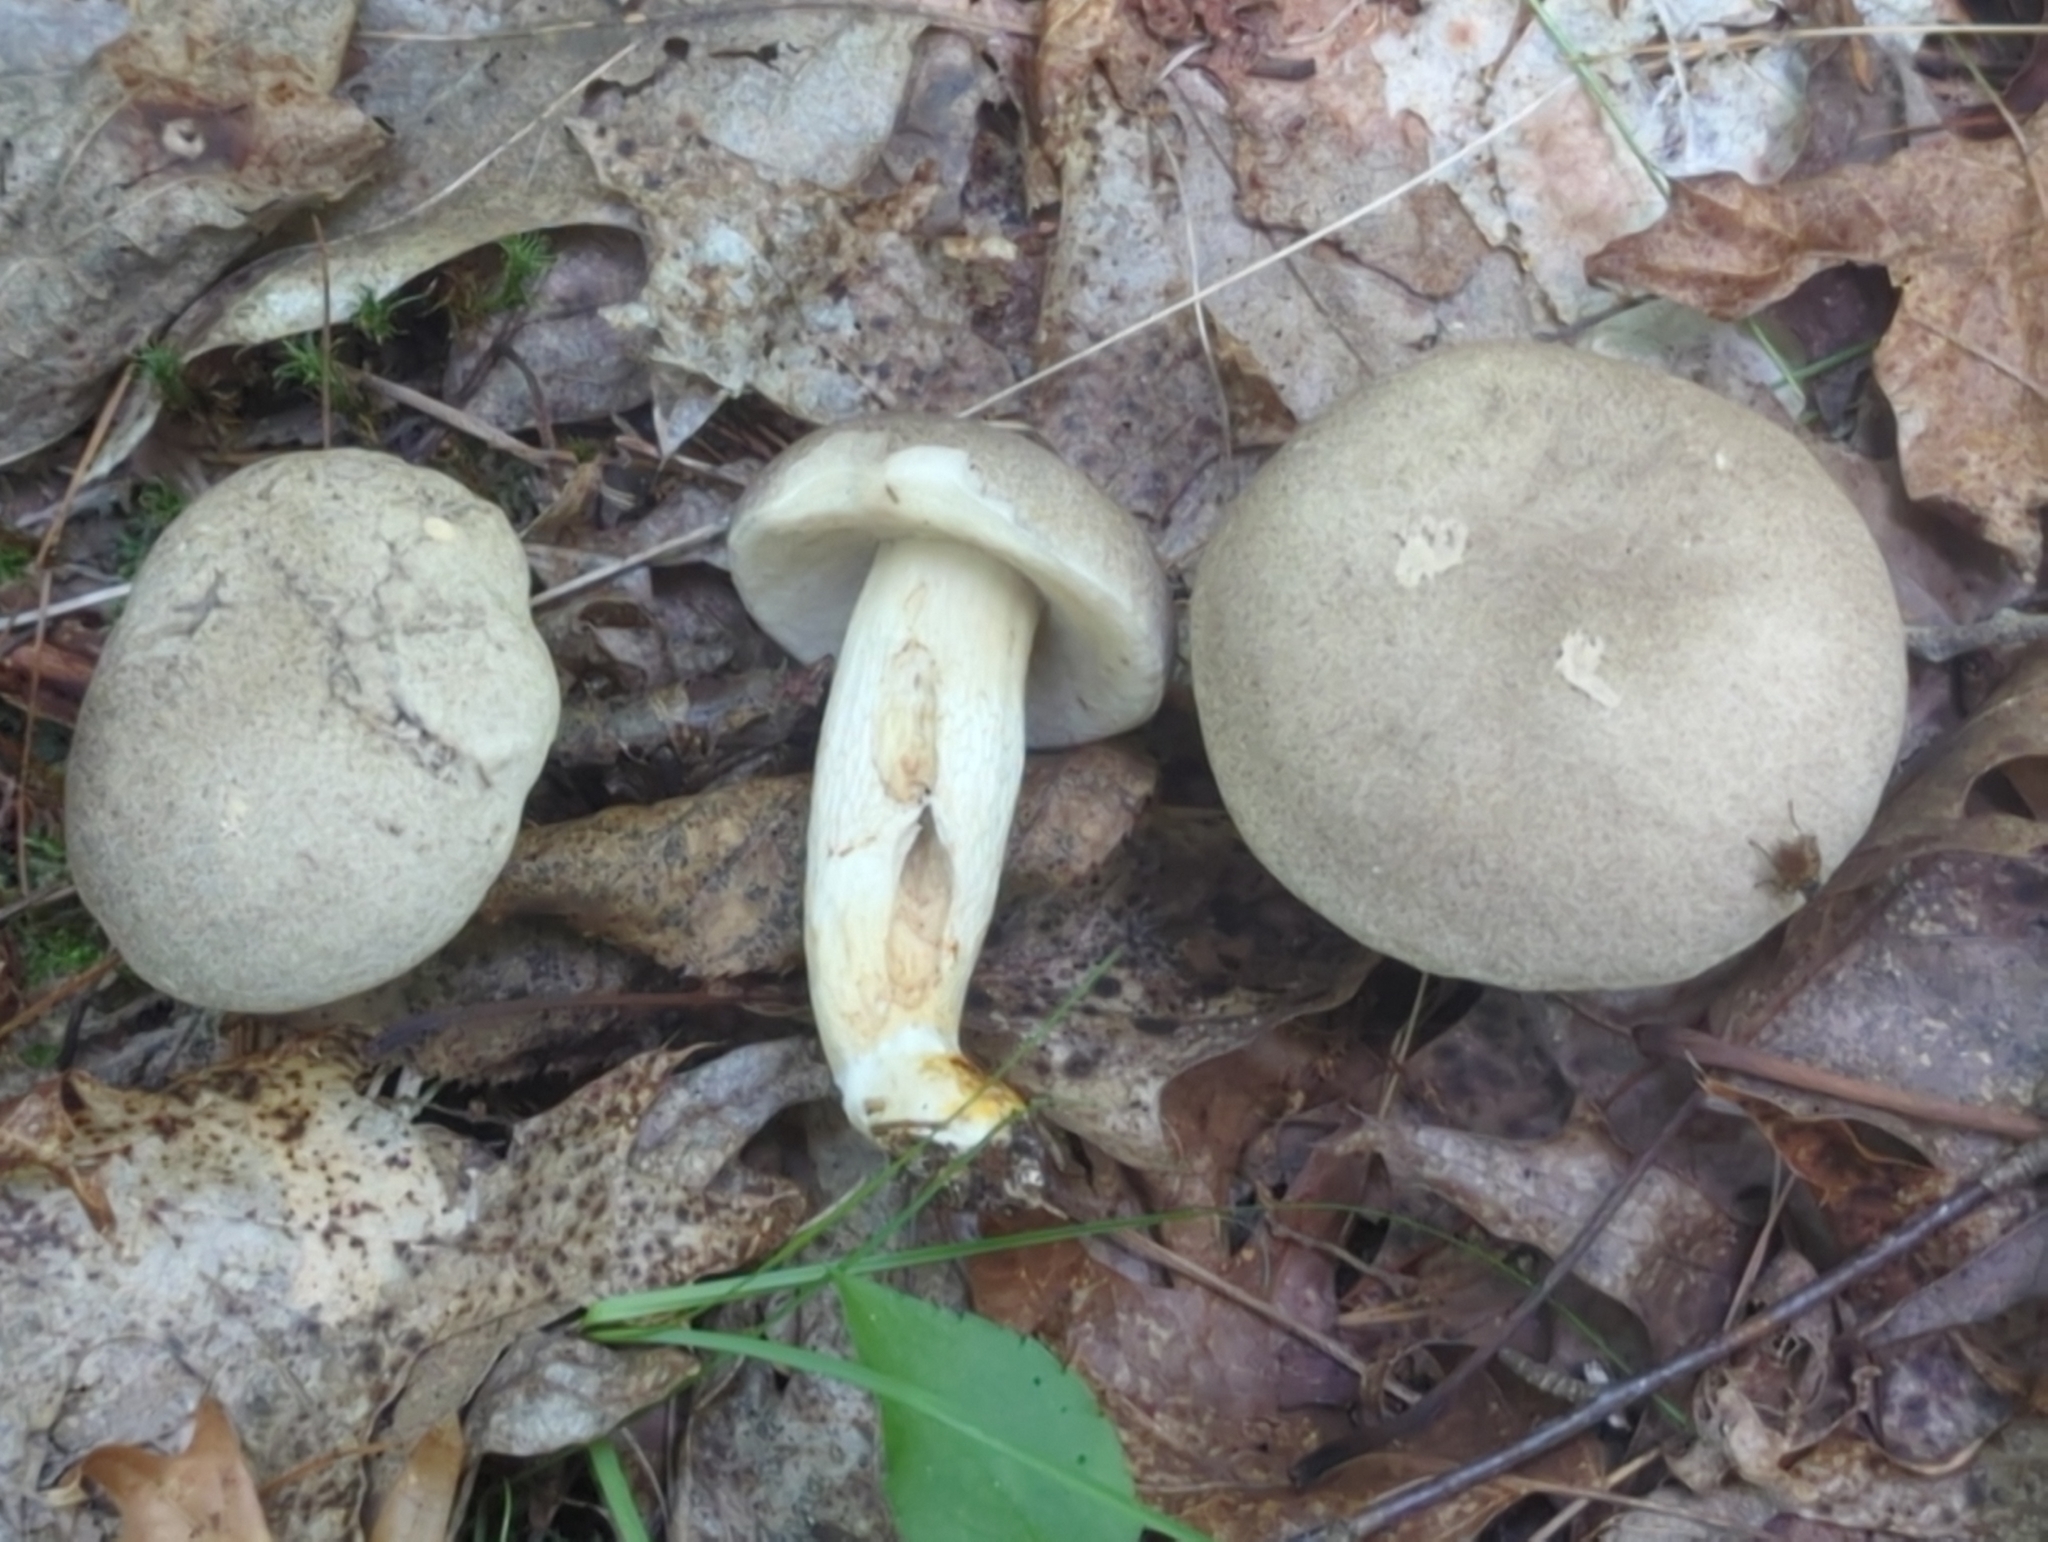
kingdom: Fungi
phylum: Basidiomycota
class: Agaricomycetes
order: Boletales
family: Boletaceae
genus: Retiboletus
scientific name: Retiboletus griseus
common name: Grey bolete
